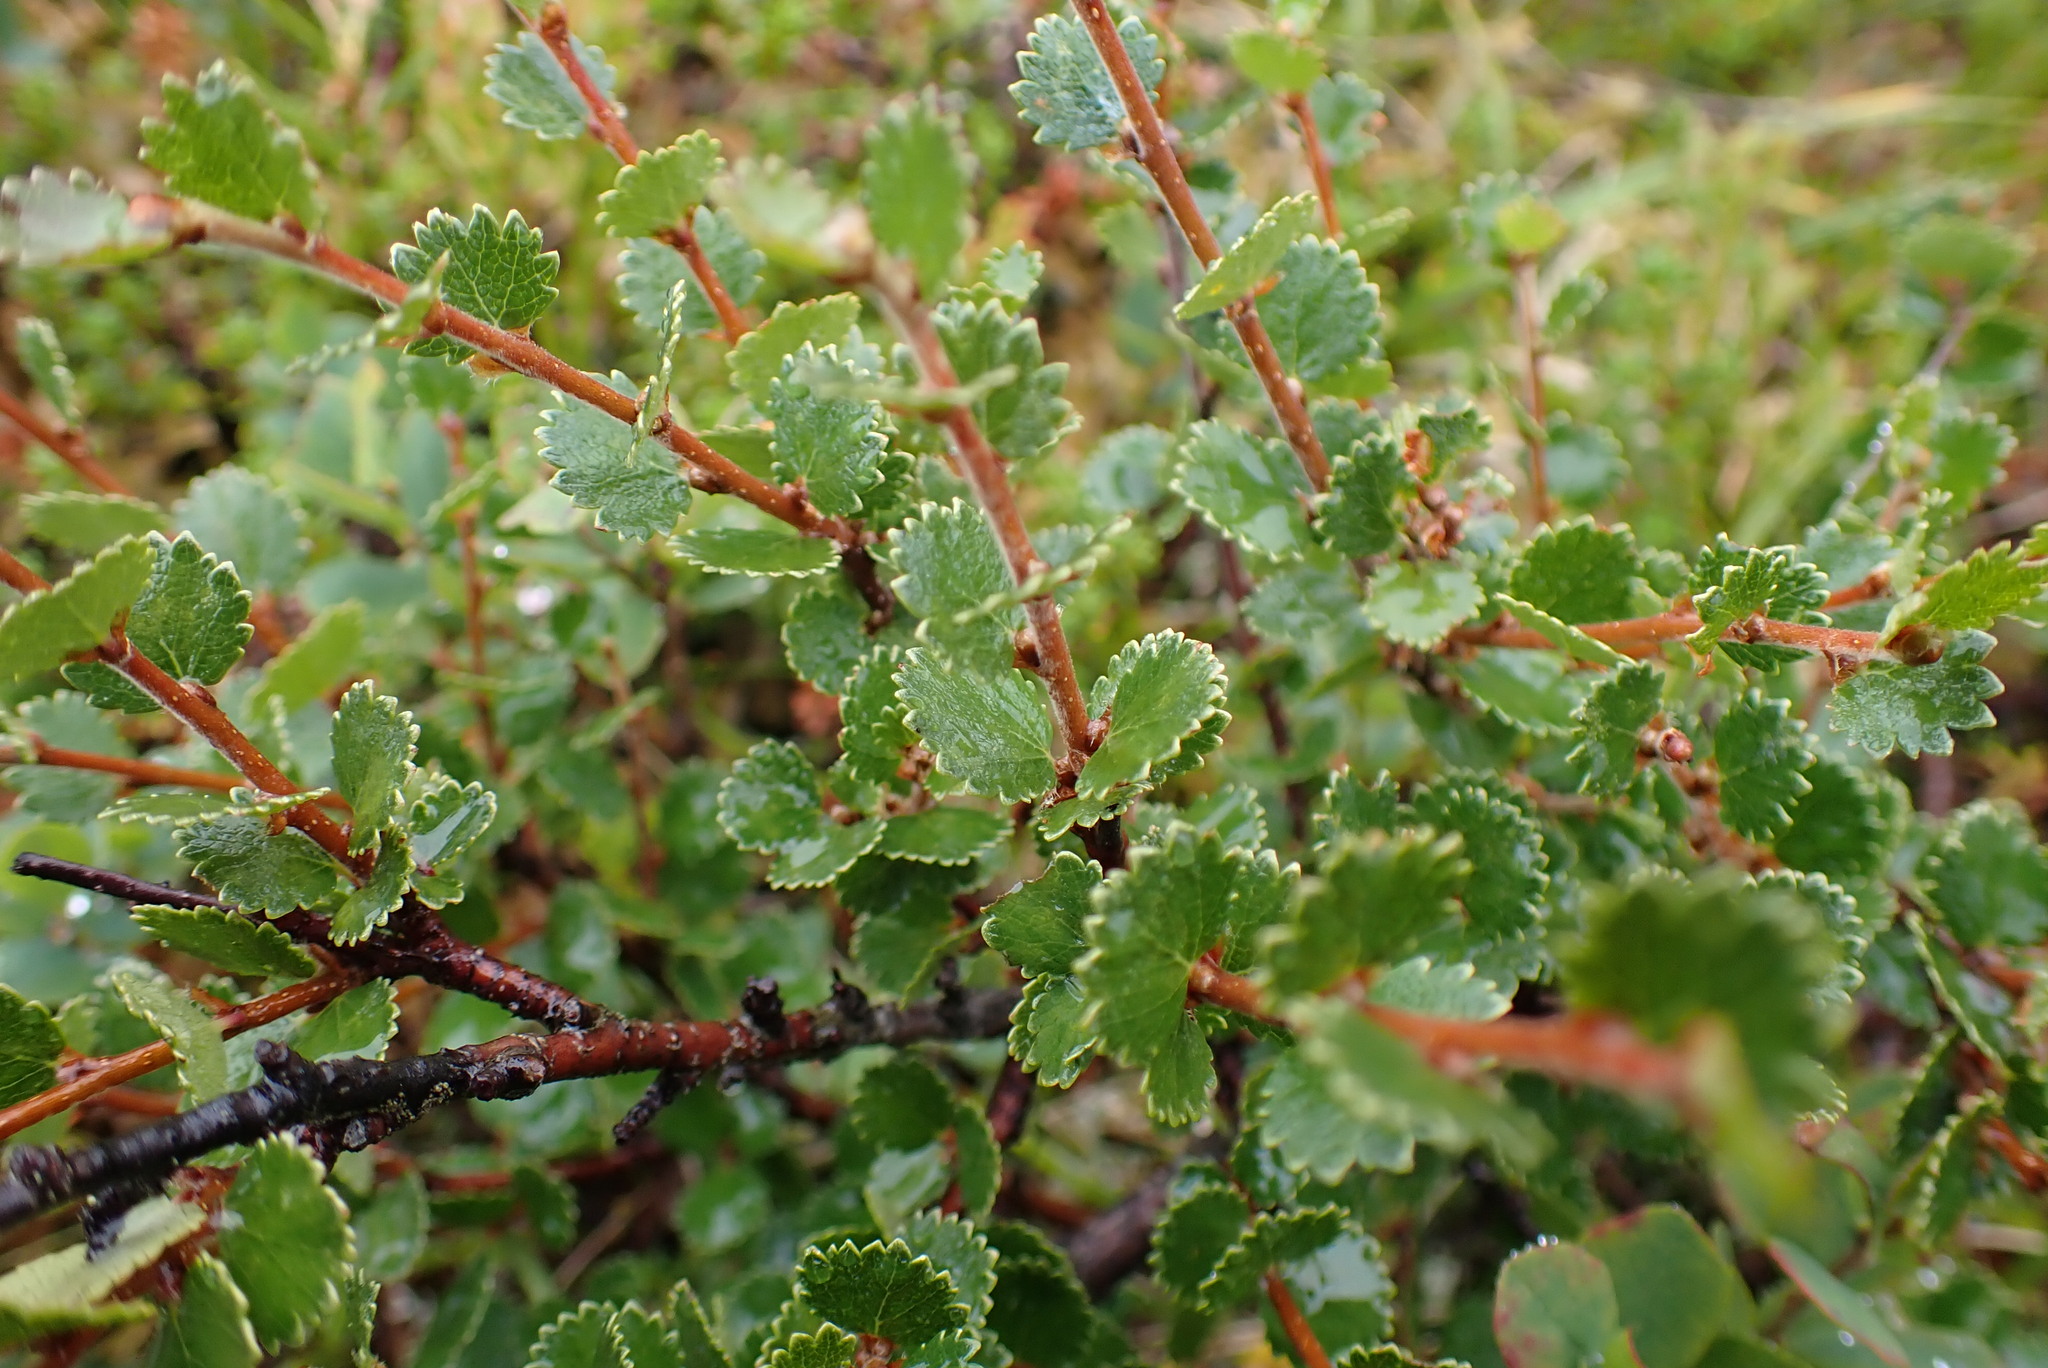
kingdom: Plantae
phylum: Tracheophyta
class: Magnoliopsida
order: Fagales
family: Betulaceae
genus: Betula
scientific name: Betula nana
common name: Arctic dwarf birch
